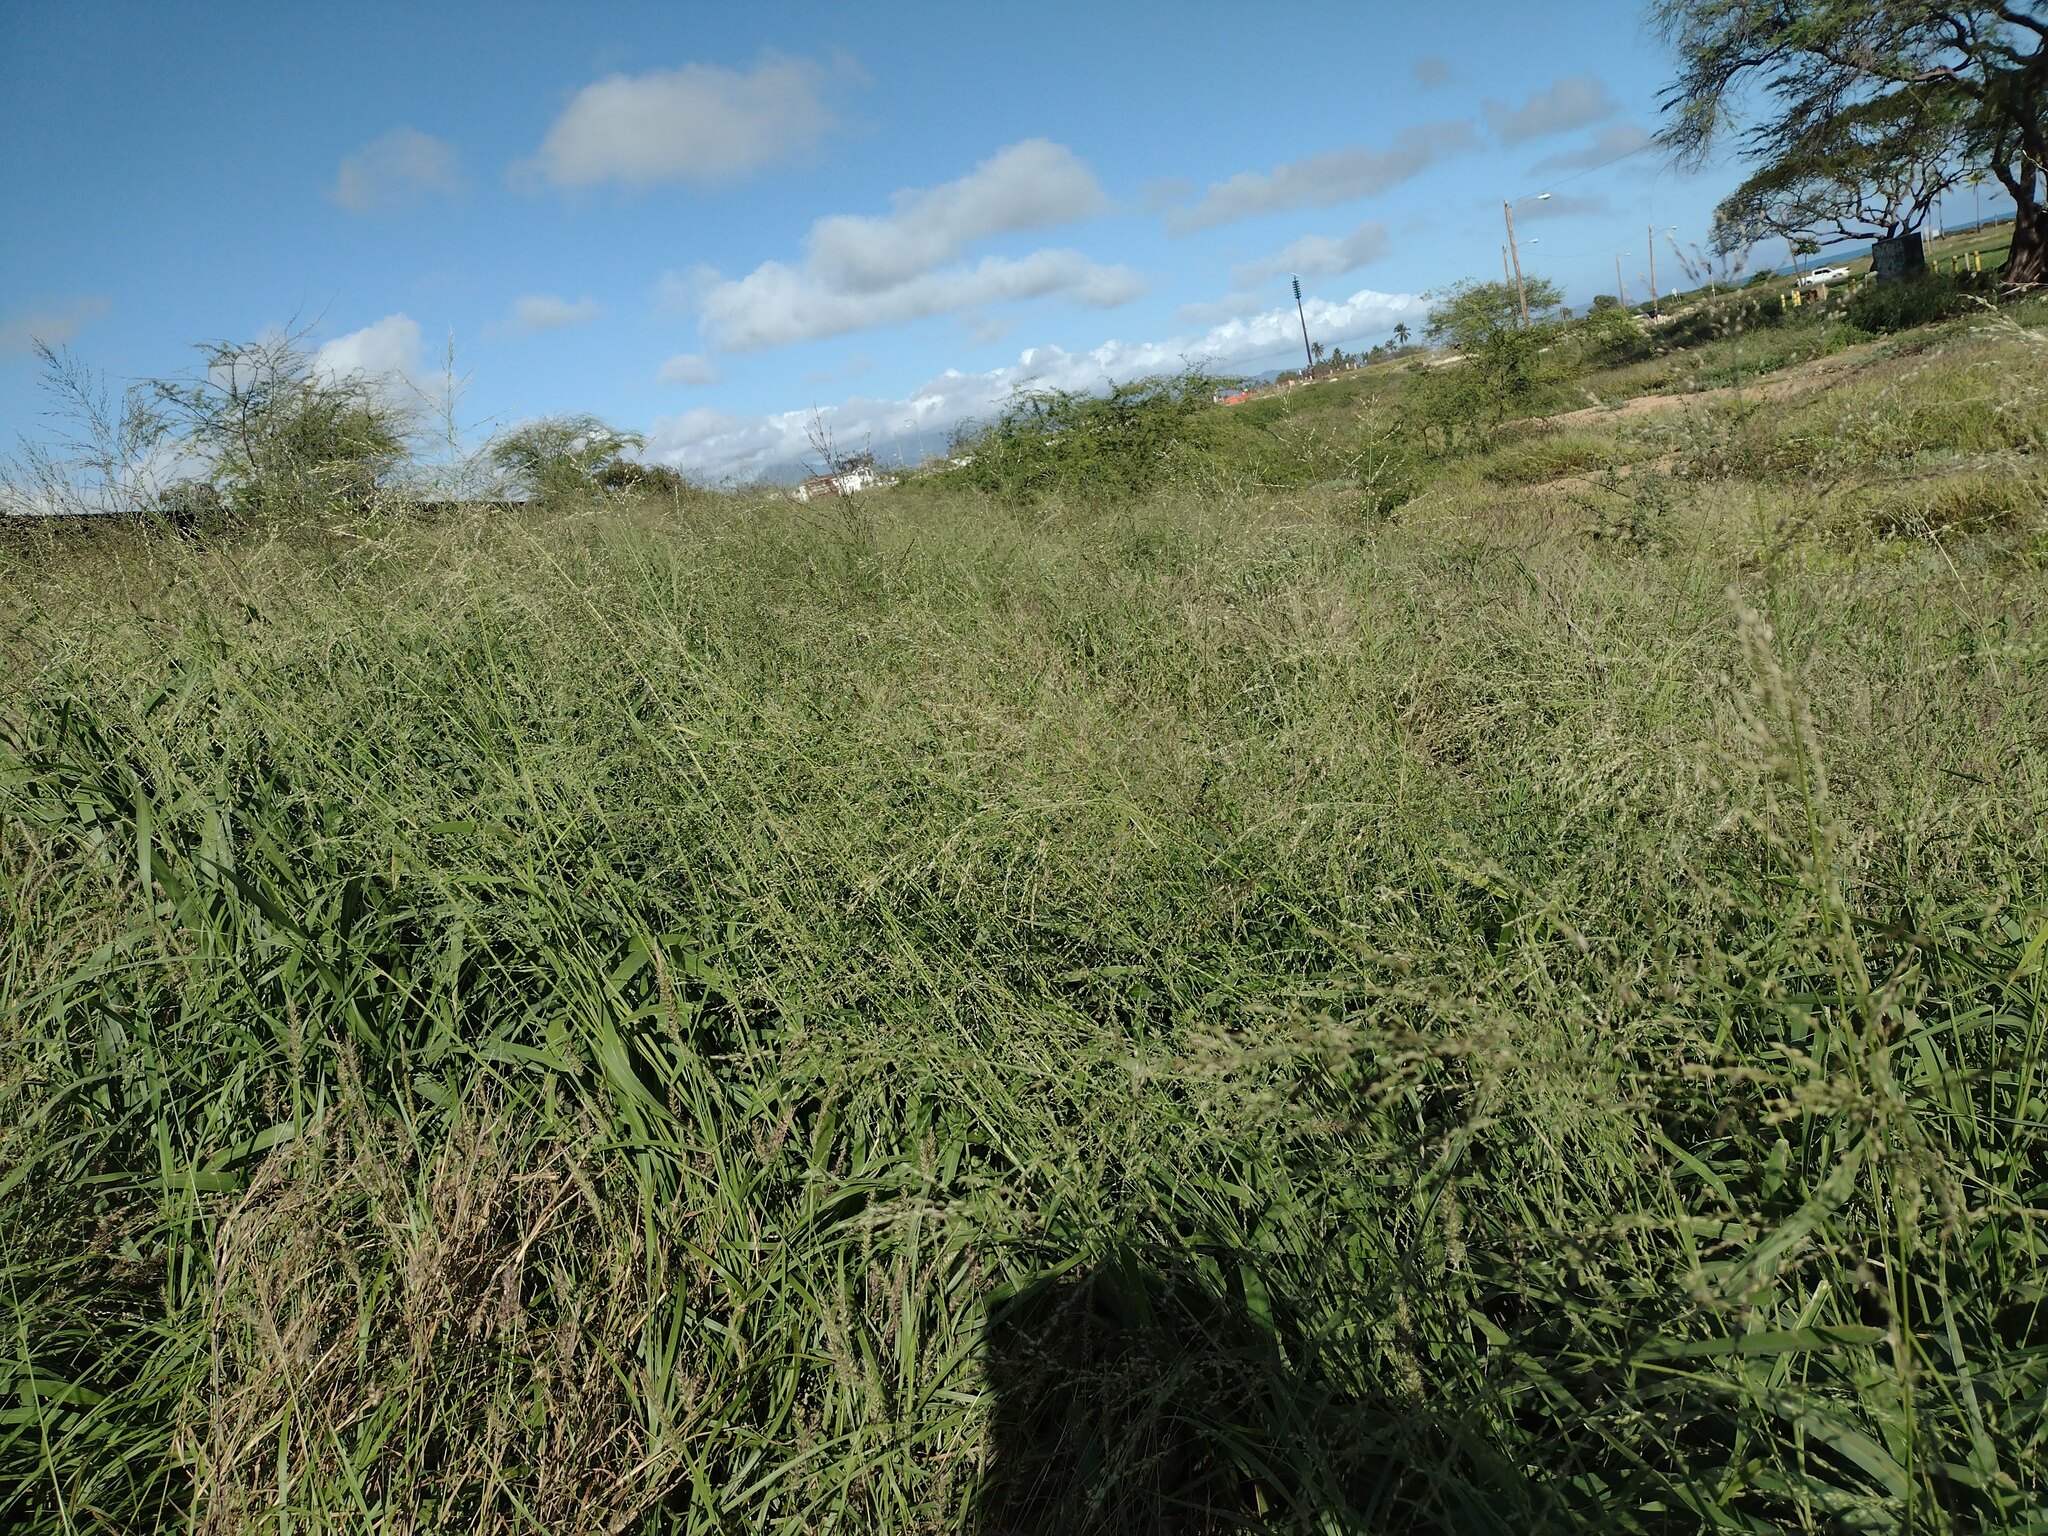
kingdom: Plantae
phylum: Tracheophyta
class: Liliopsida
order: Poales
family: Poaceae
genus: Megathyrsus
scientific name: Megathyrsus maximus
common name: Guineagrass
